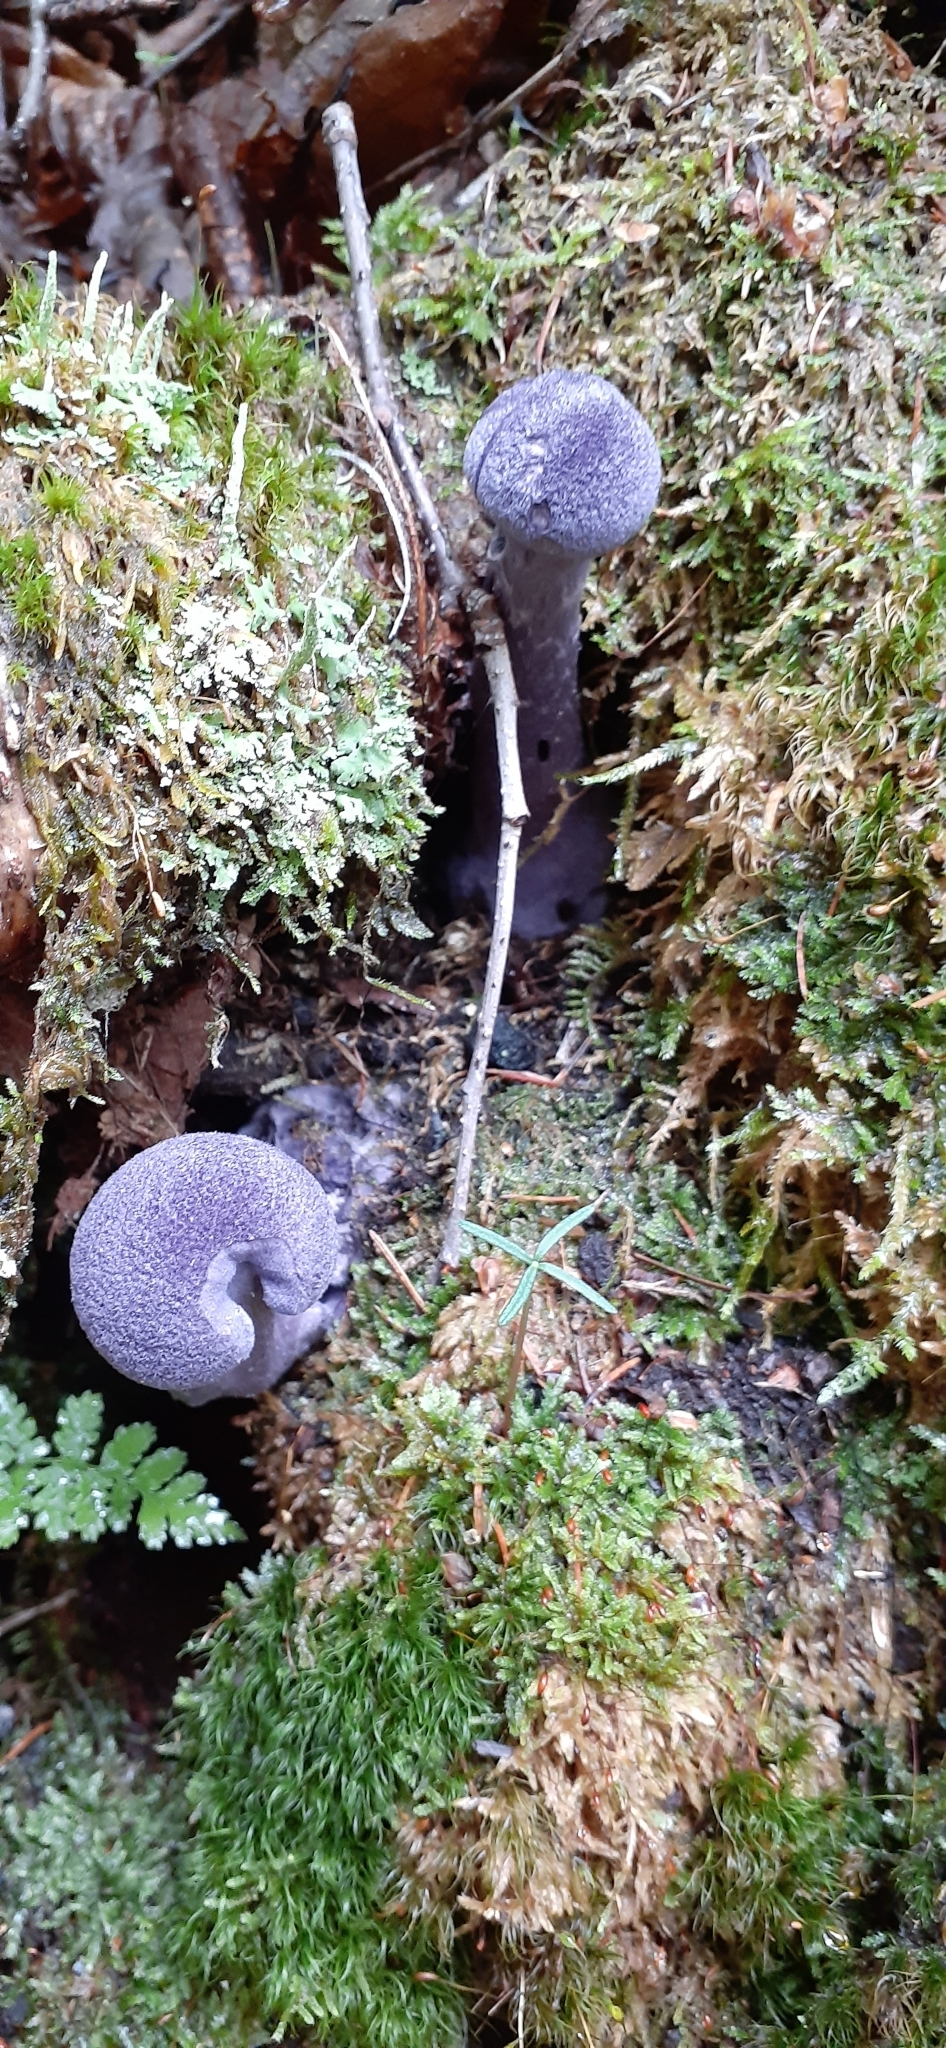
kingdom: Fungi
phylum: Basidiomycota
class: Agaricomycetes
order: Agaricales
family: Cortinariaceae
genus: Cortinarius
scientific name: Cortinarius violaceus
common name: Violet webcap
